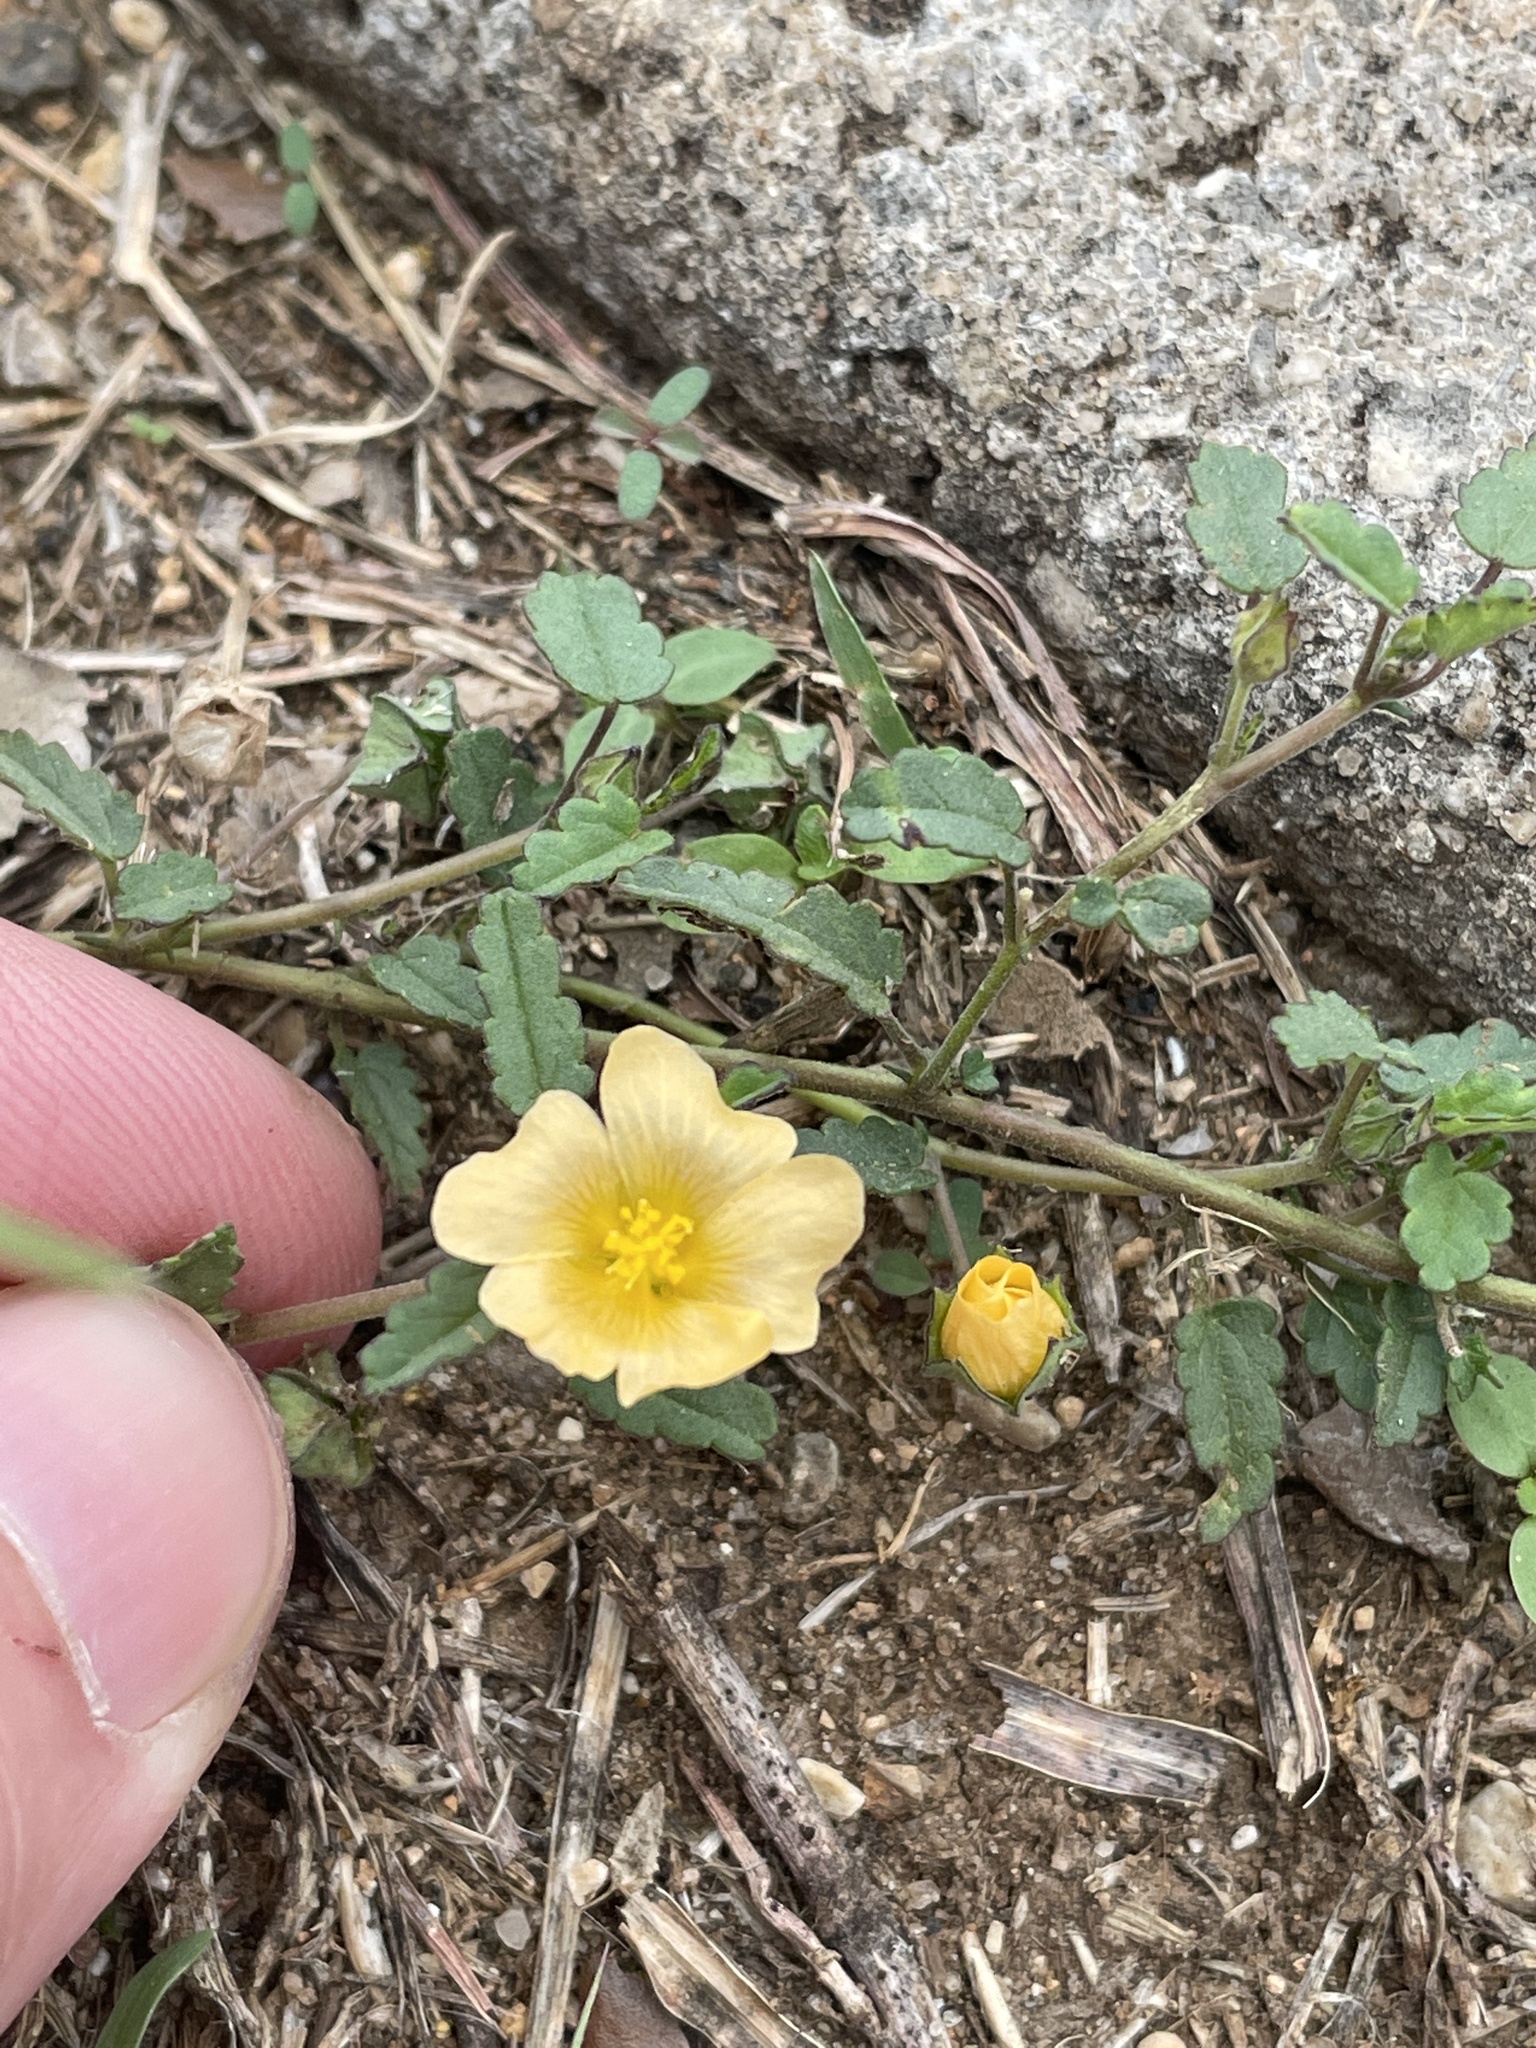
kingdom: Plantae
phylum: Tracheophyta
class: Magnoliopsida
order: Malvales
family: Malvaceae
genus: Sida
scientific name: Sida abutilifolia
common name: Spreading fanpetals
